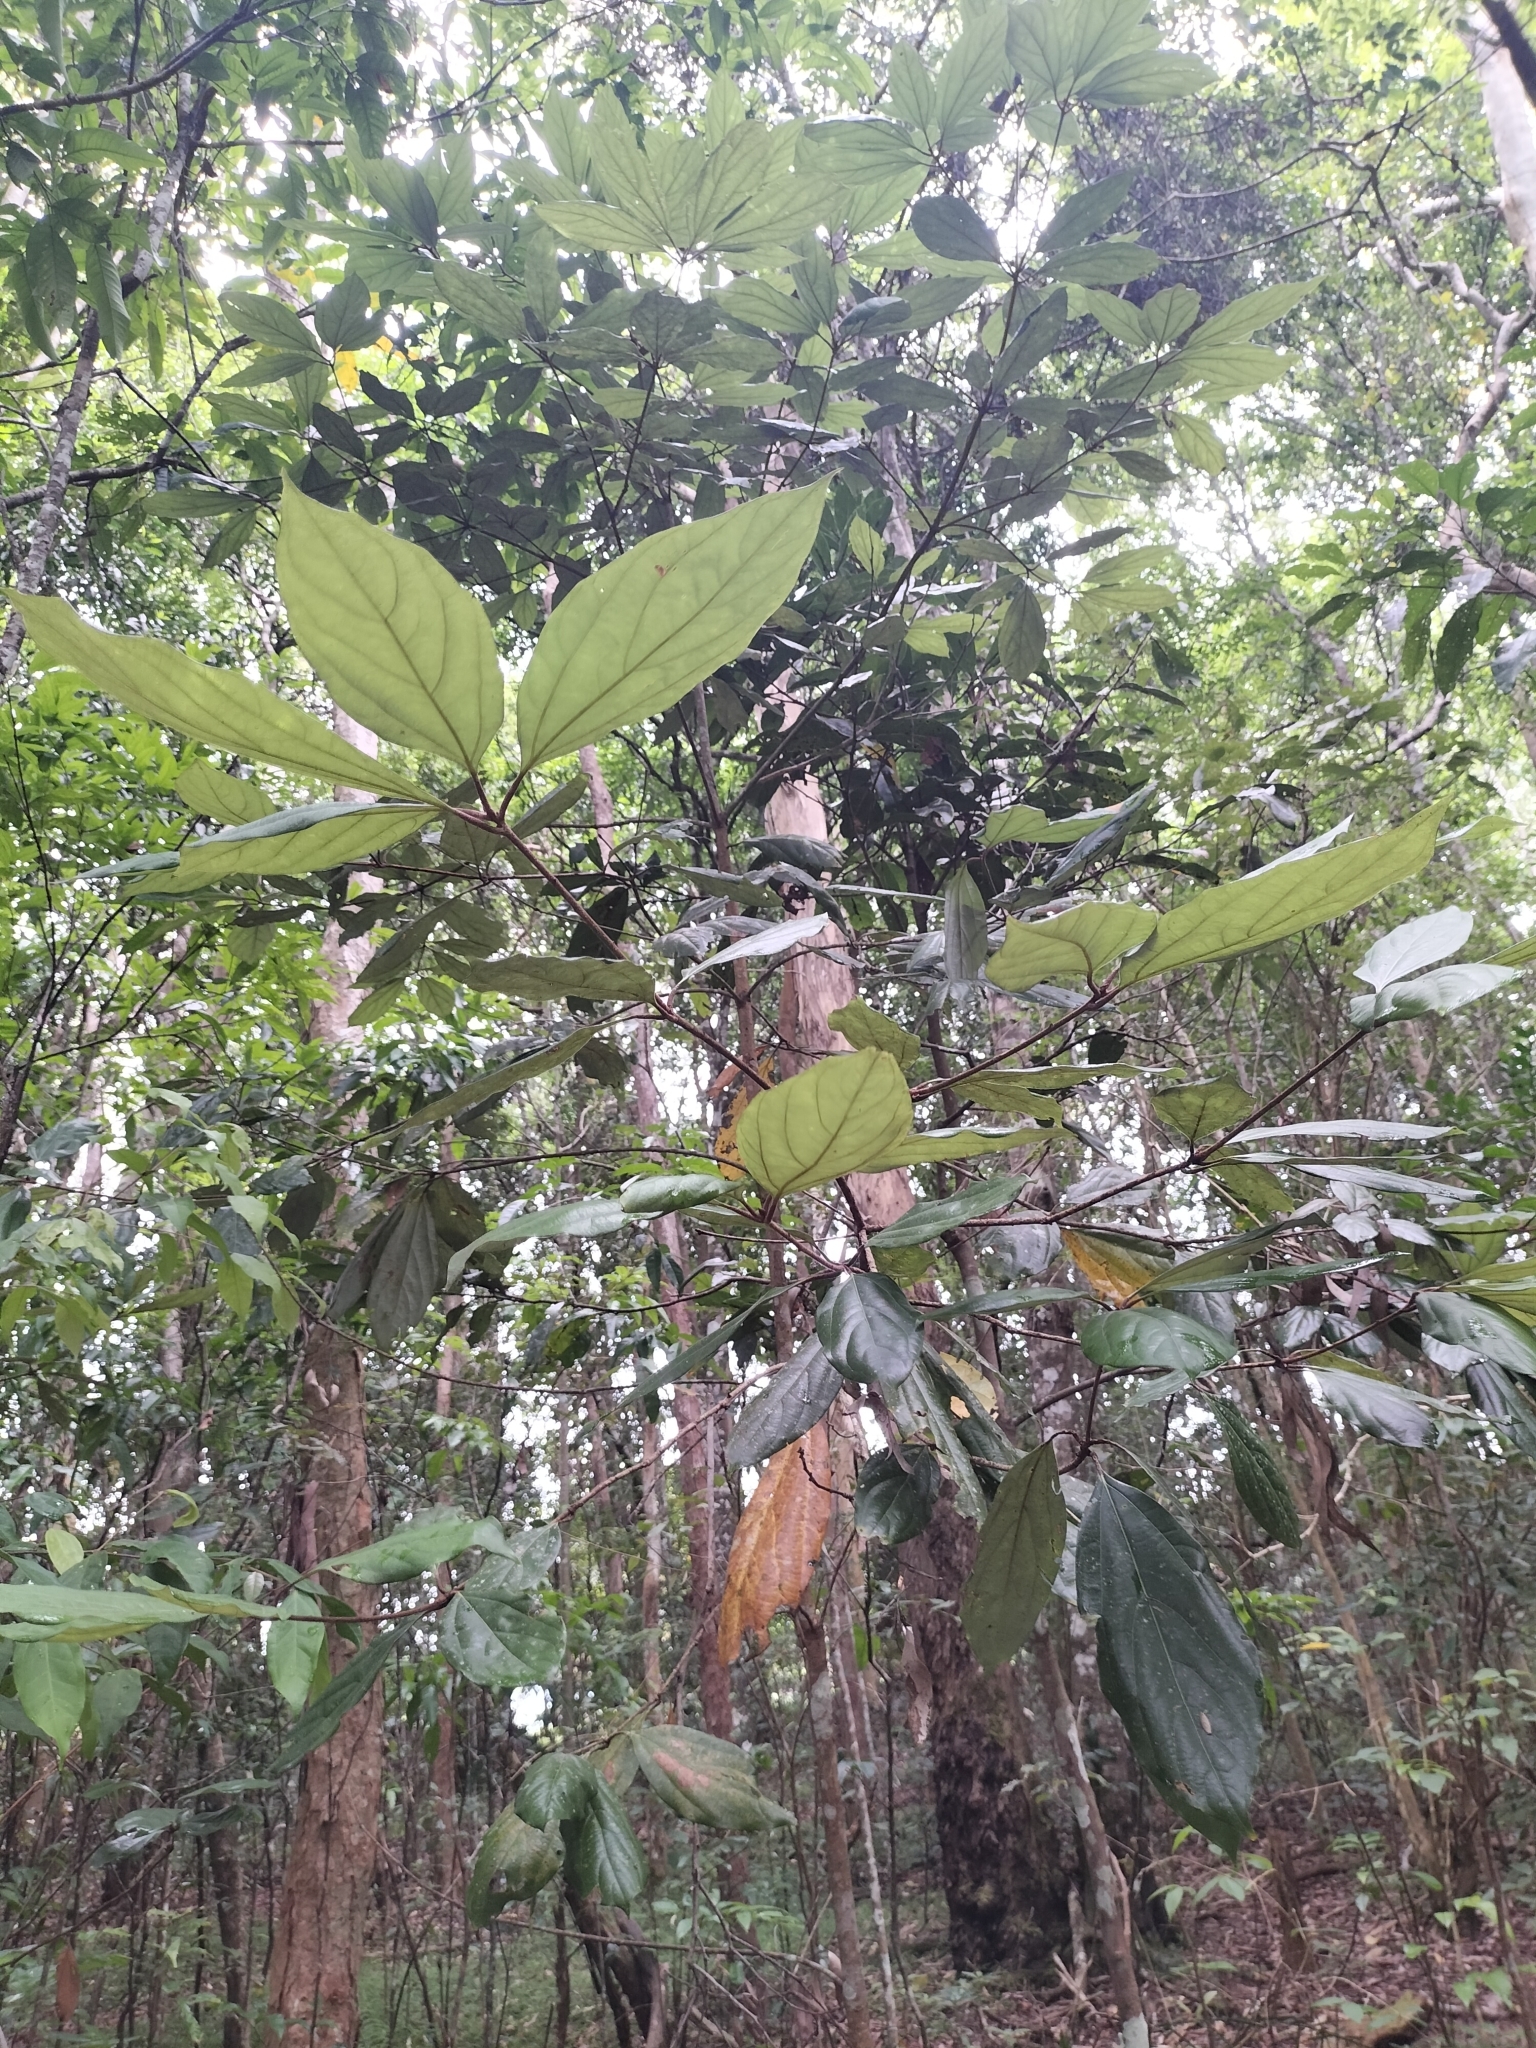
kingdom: Plantae
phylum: Tracheophyta
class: Magnoliopsida
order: Laurales
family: Lauraceae
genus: Neolitsea
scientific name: Neolitsea dealbata
